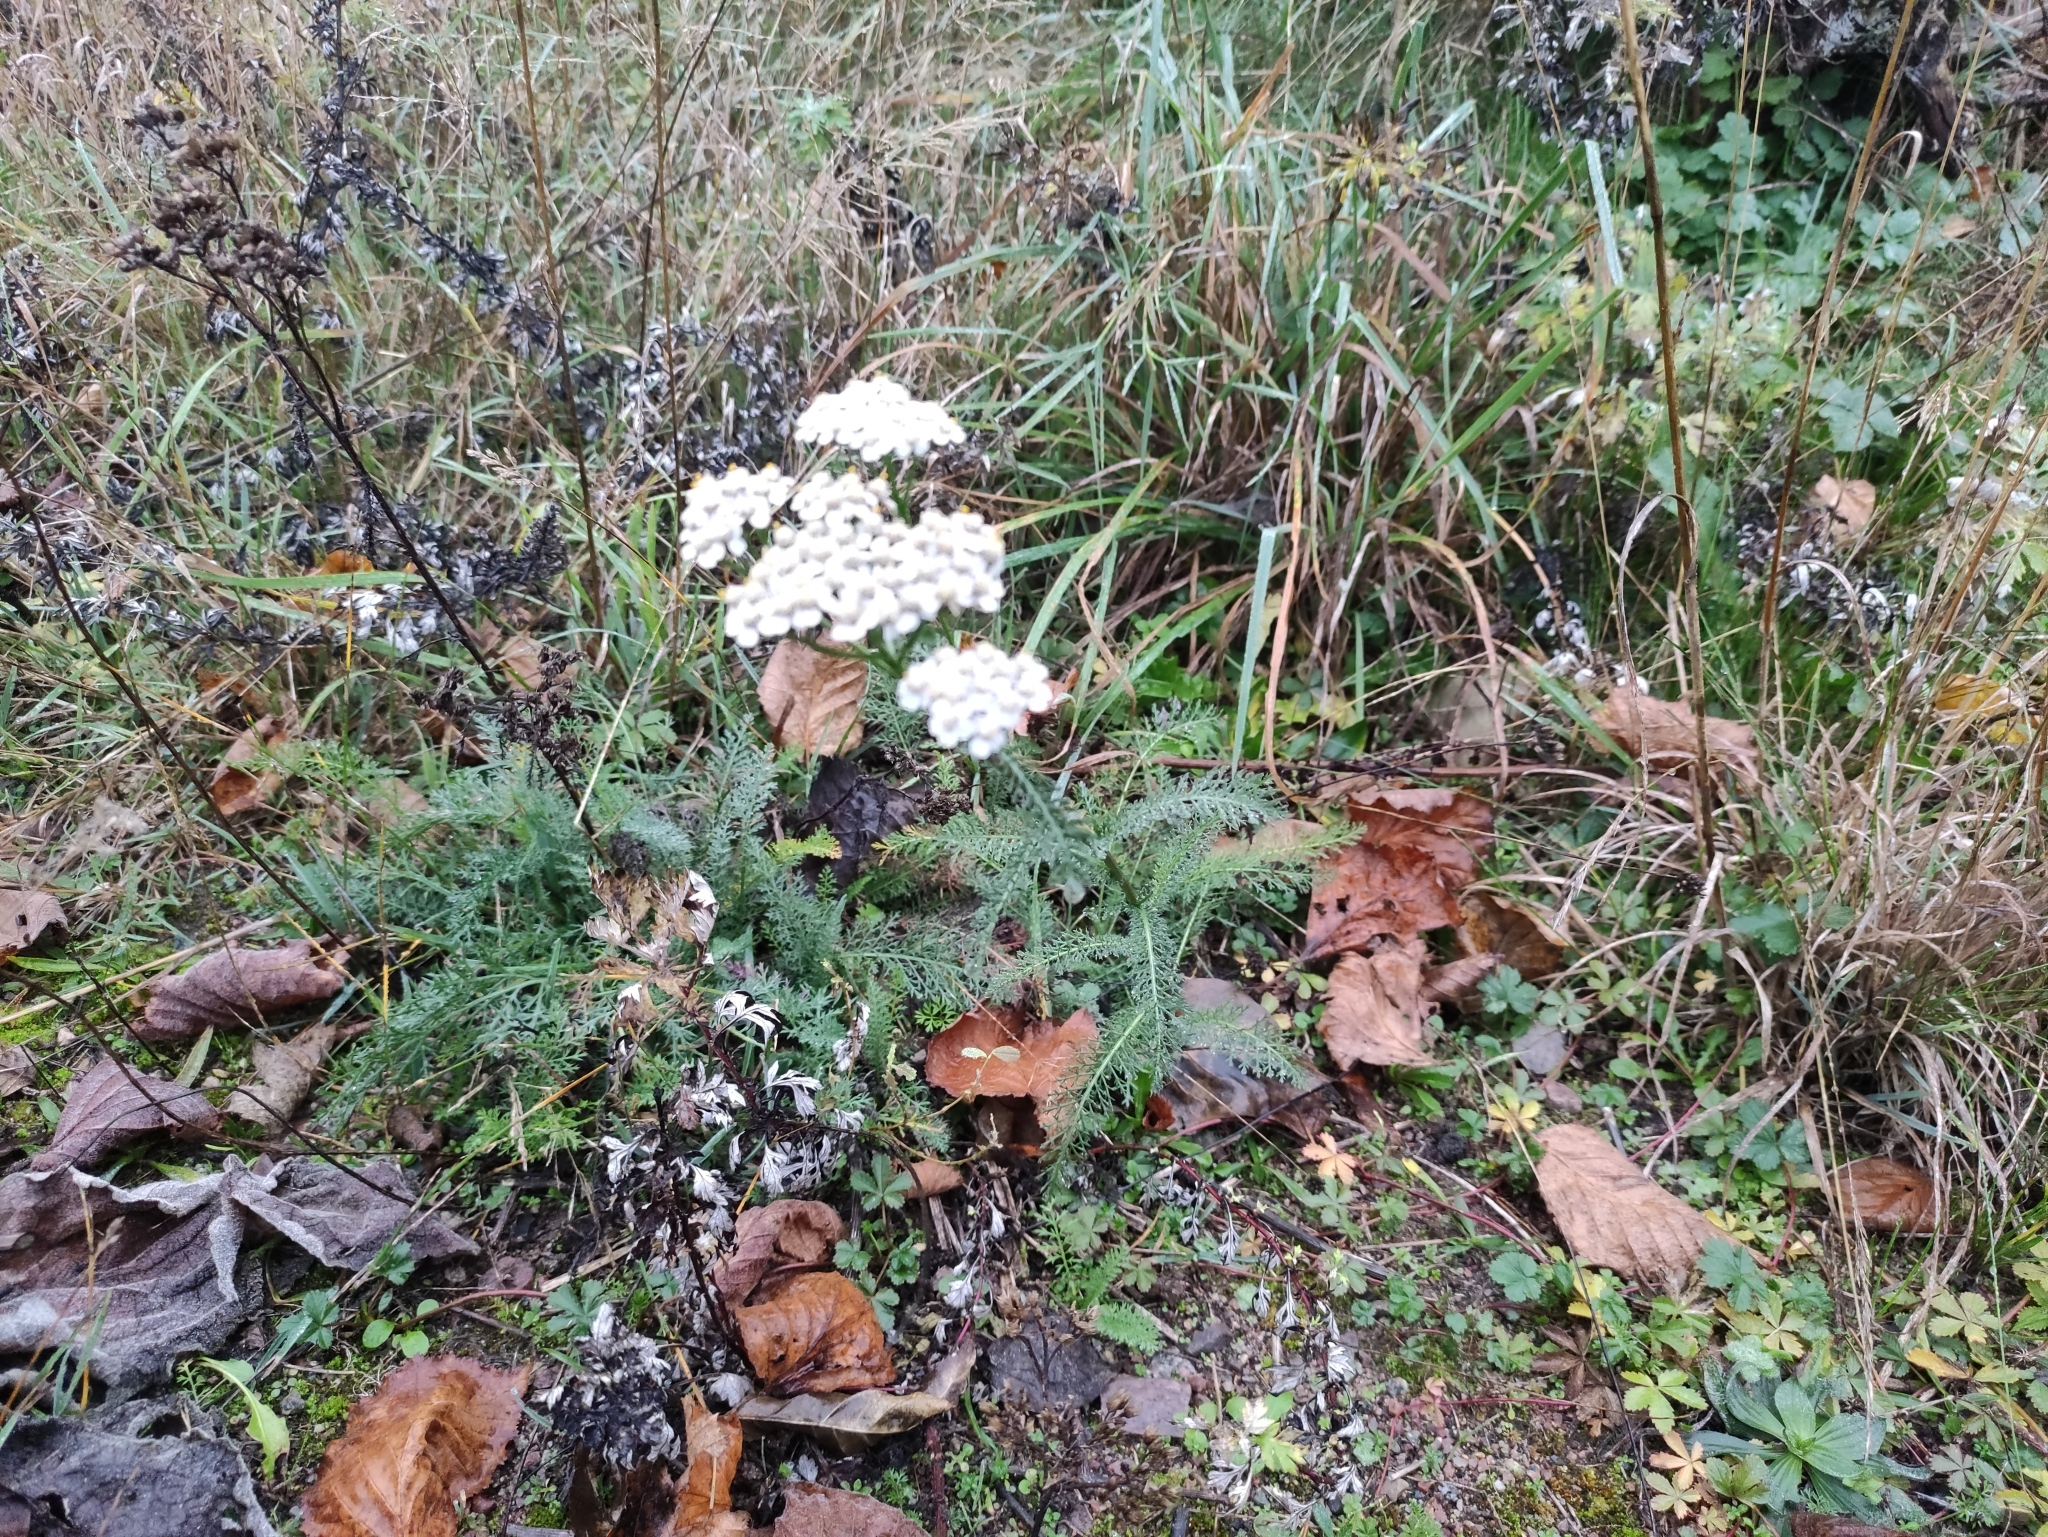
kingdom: Plantae
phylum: Tracheophyta
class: Magnoliopsida
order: Asterales
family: Asteraceae
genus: Achillea
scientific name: Achillea millefolium
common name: Yarrow
